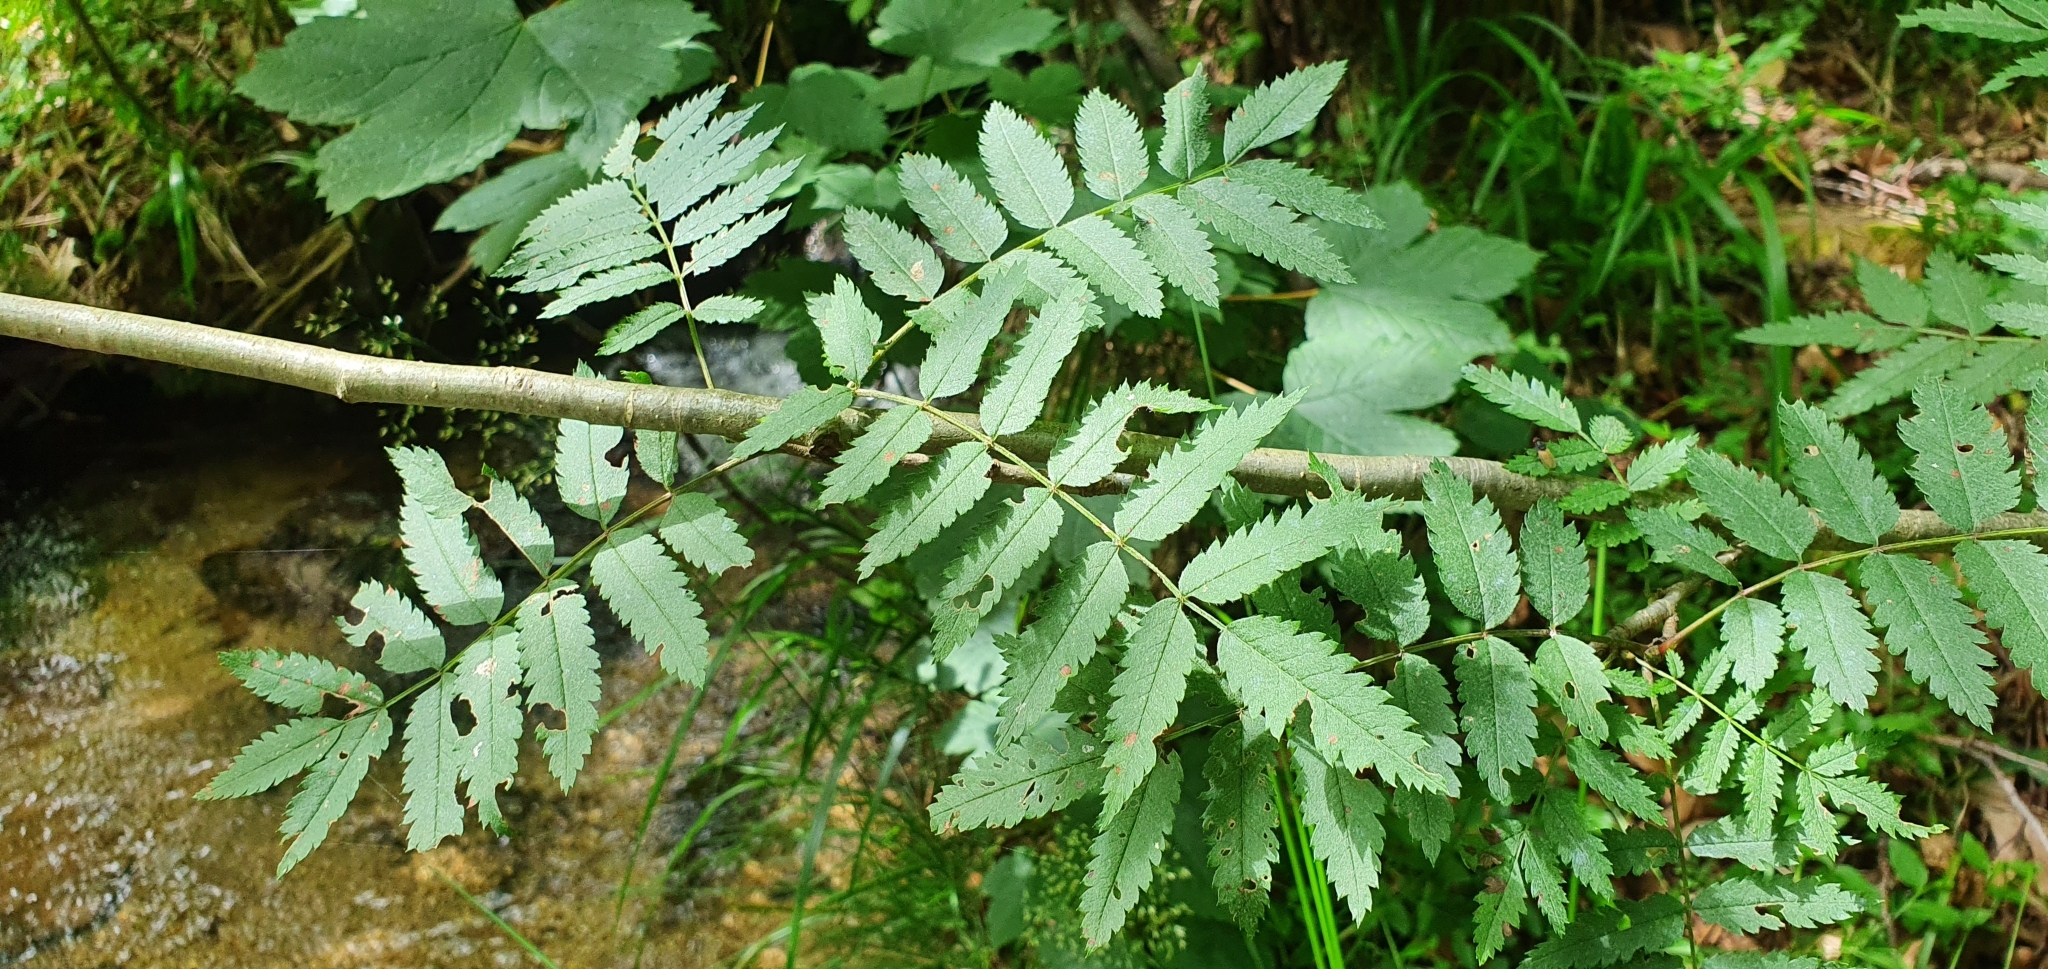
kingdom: Plantae
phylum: Tracheophyta
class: Magnoliopsida
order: Rosales
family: Rosaceae
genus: Sorbus
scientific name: Sorbus aucuparia
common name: Rowan
